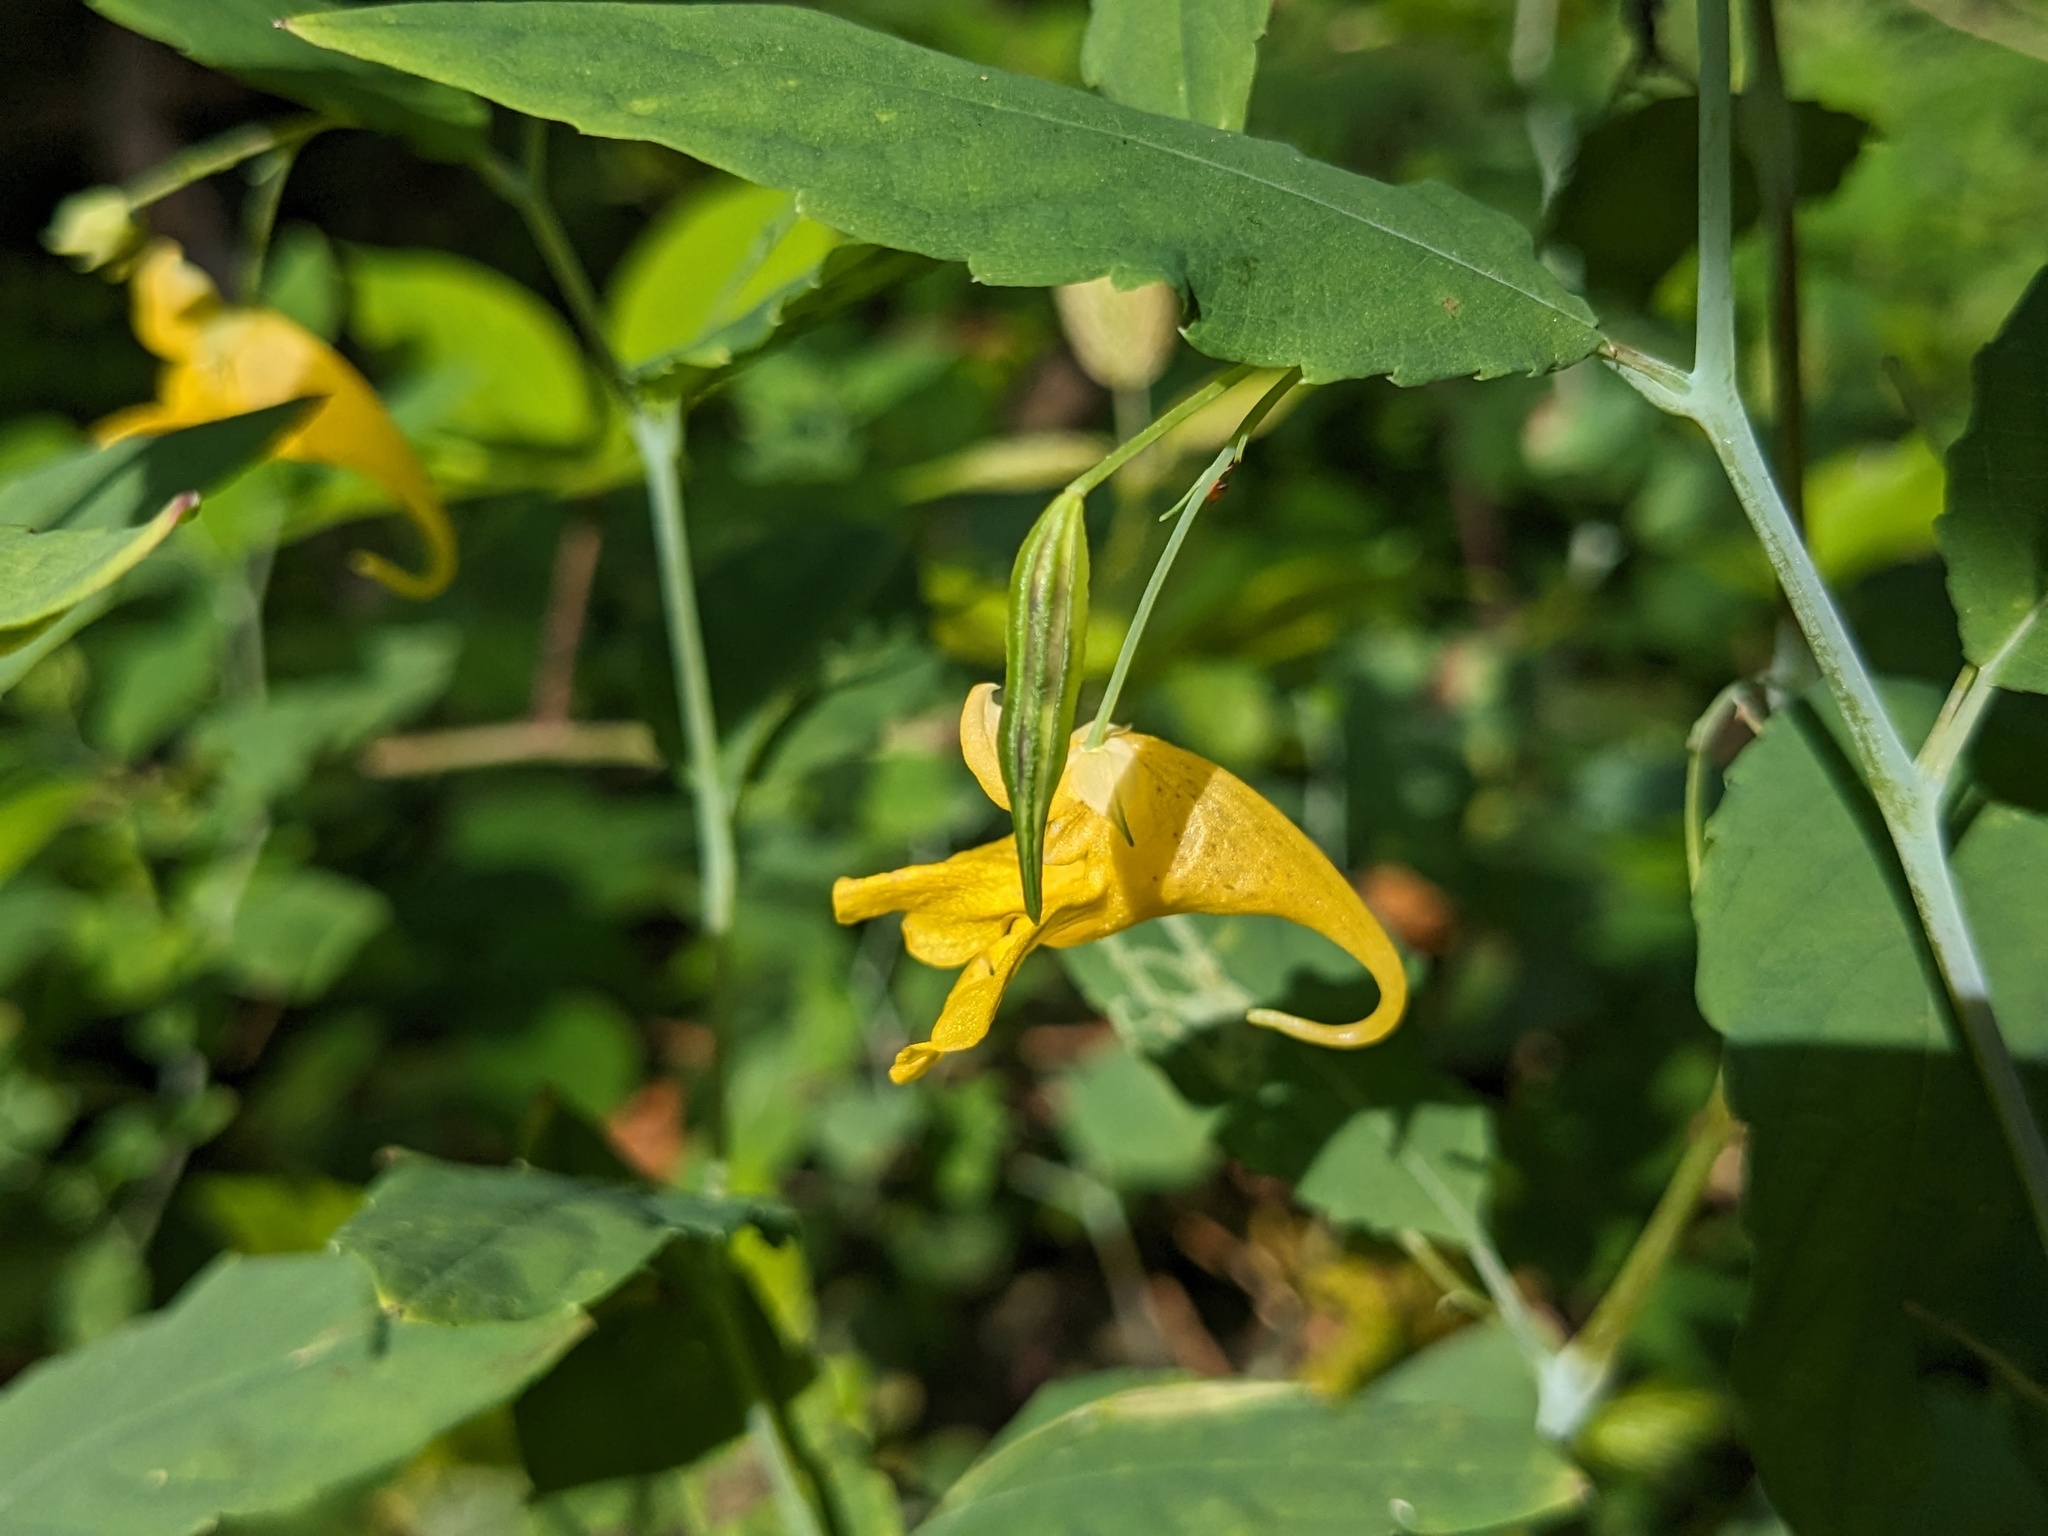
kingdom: Plantae
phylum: Tracheophyta
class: Magnoliopsida
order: Ericales
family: Balsaminaceae
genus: Impatiens
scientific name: Impatiens noli-tangere
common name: Touch-me-not balsam
